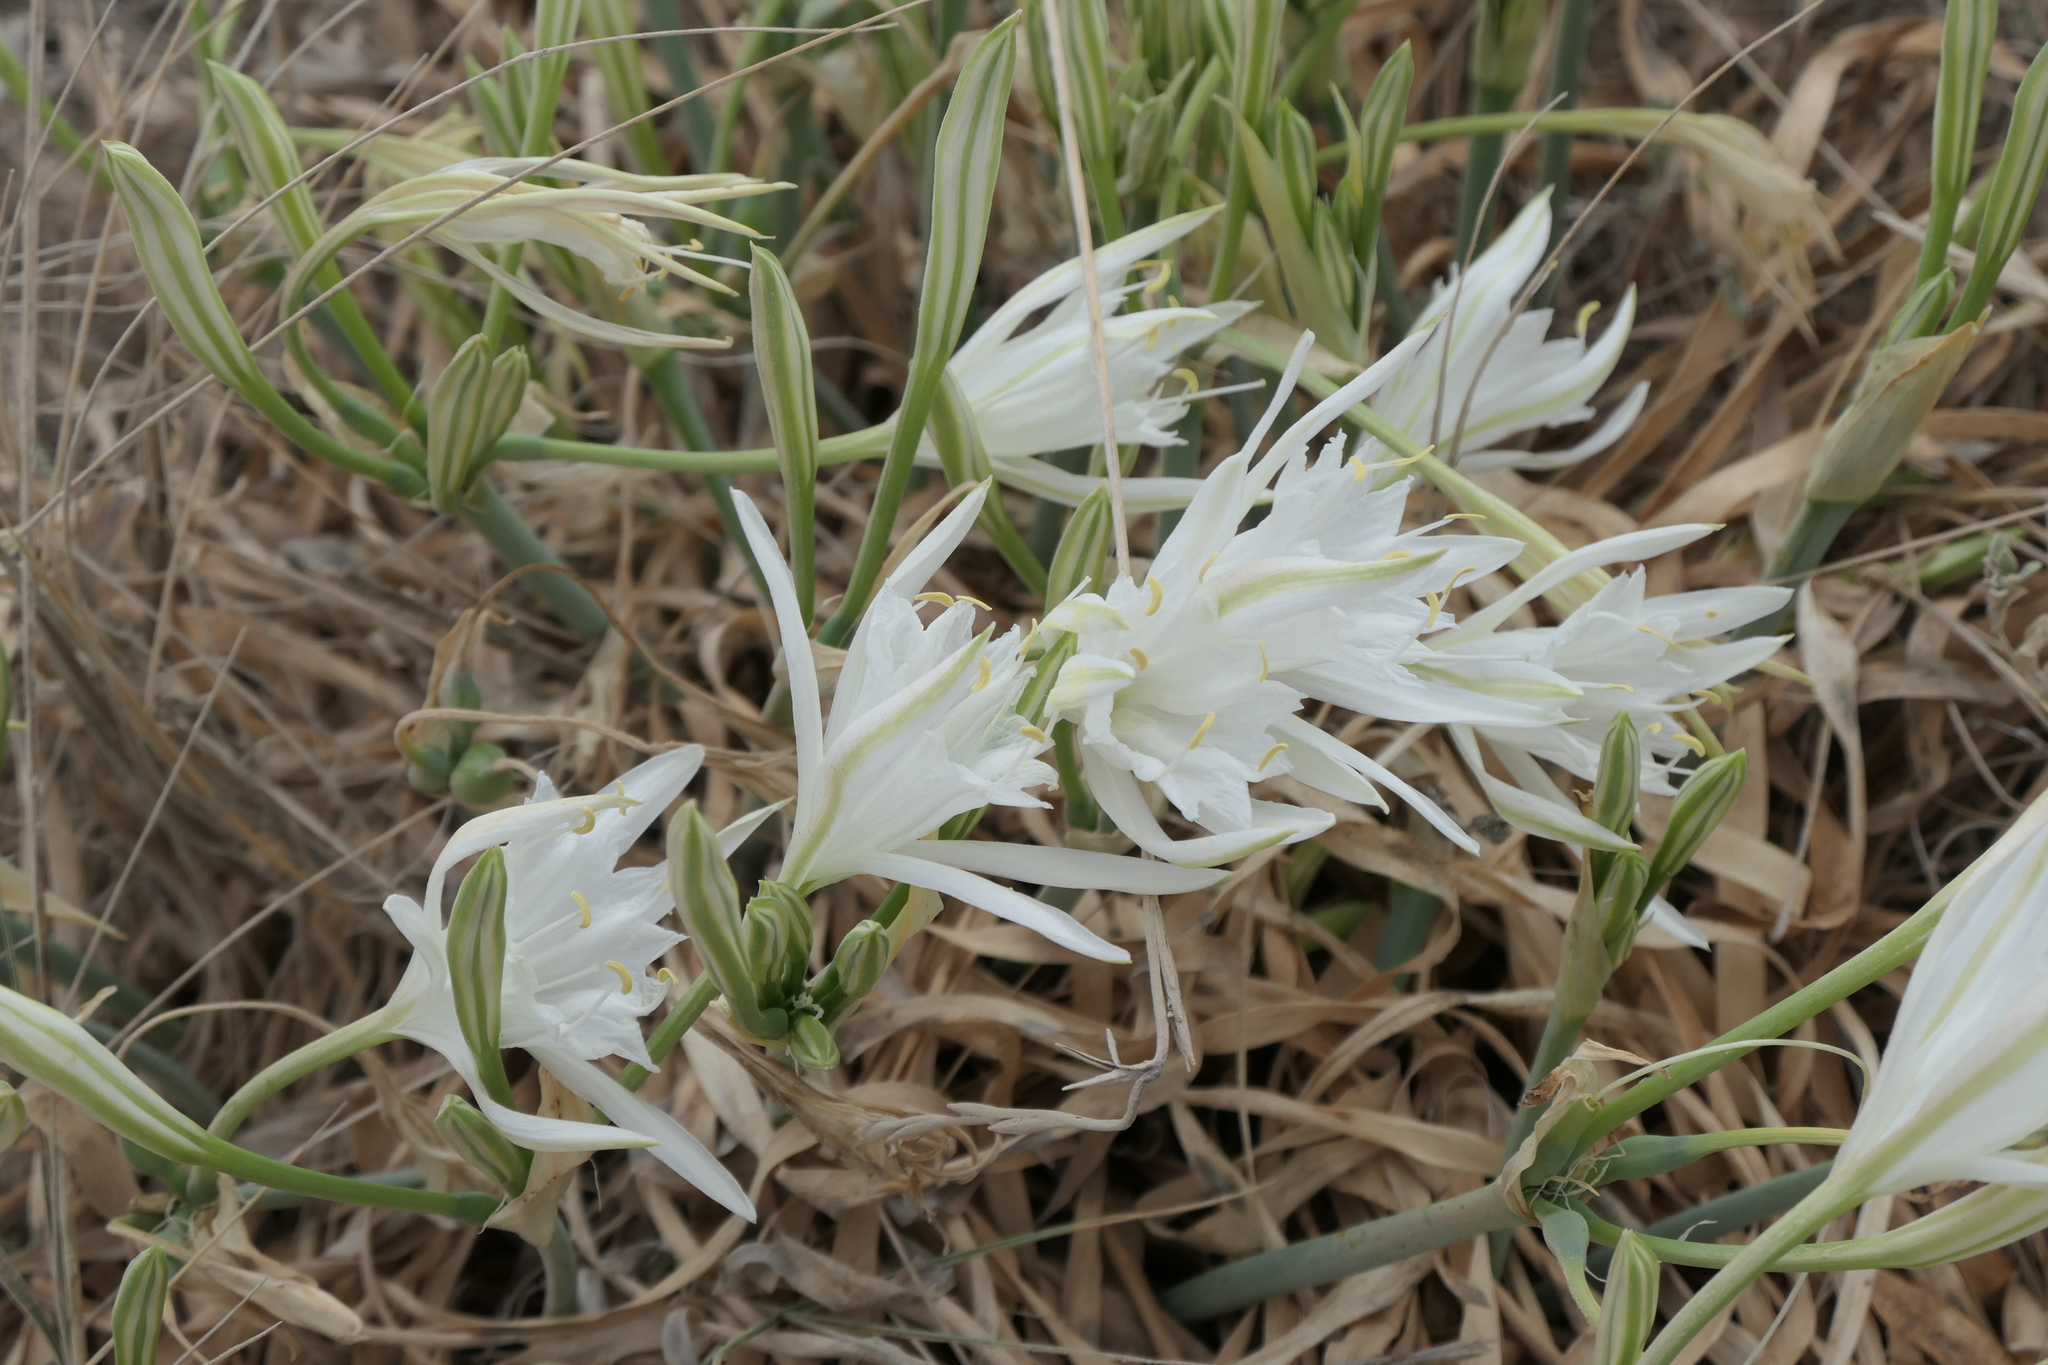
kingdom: Plantae
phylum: Tracheophyta
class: Liliopsida
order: Asparagales
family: Amaryllidaceae
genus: Pancratium
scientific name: Pancratium maritimum
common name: Sea-daffodil
